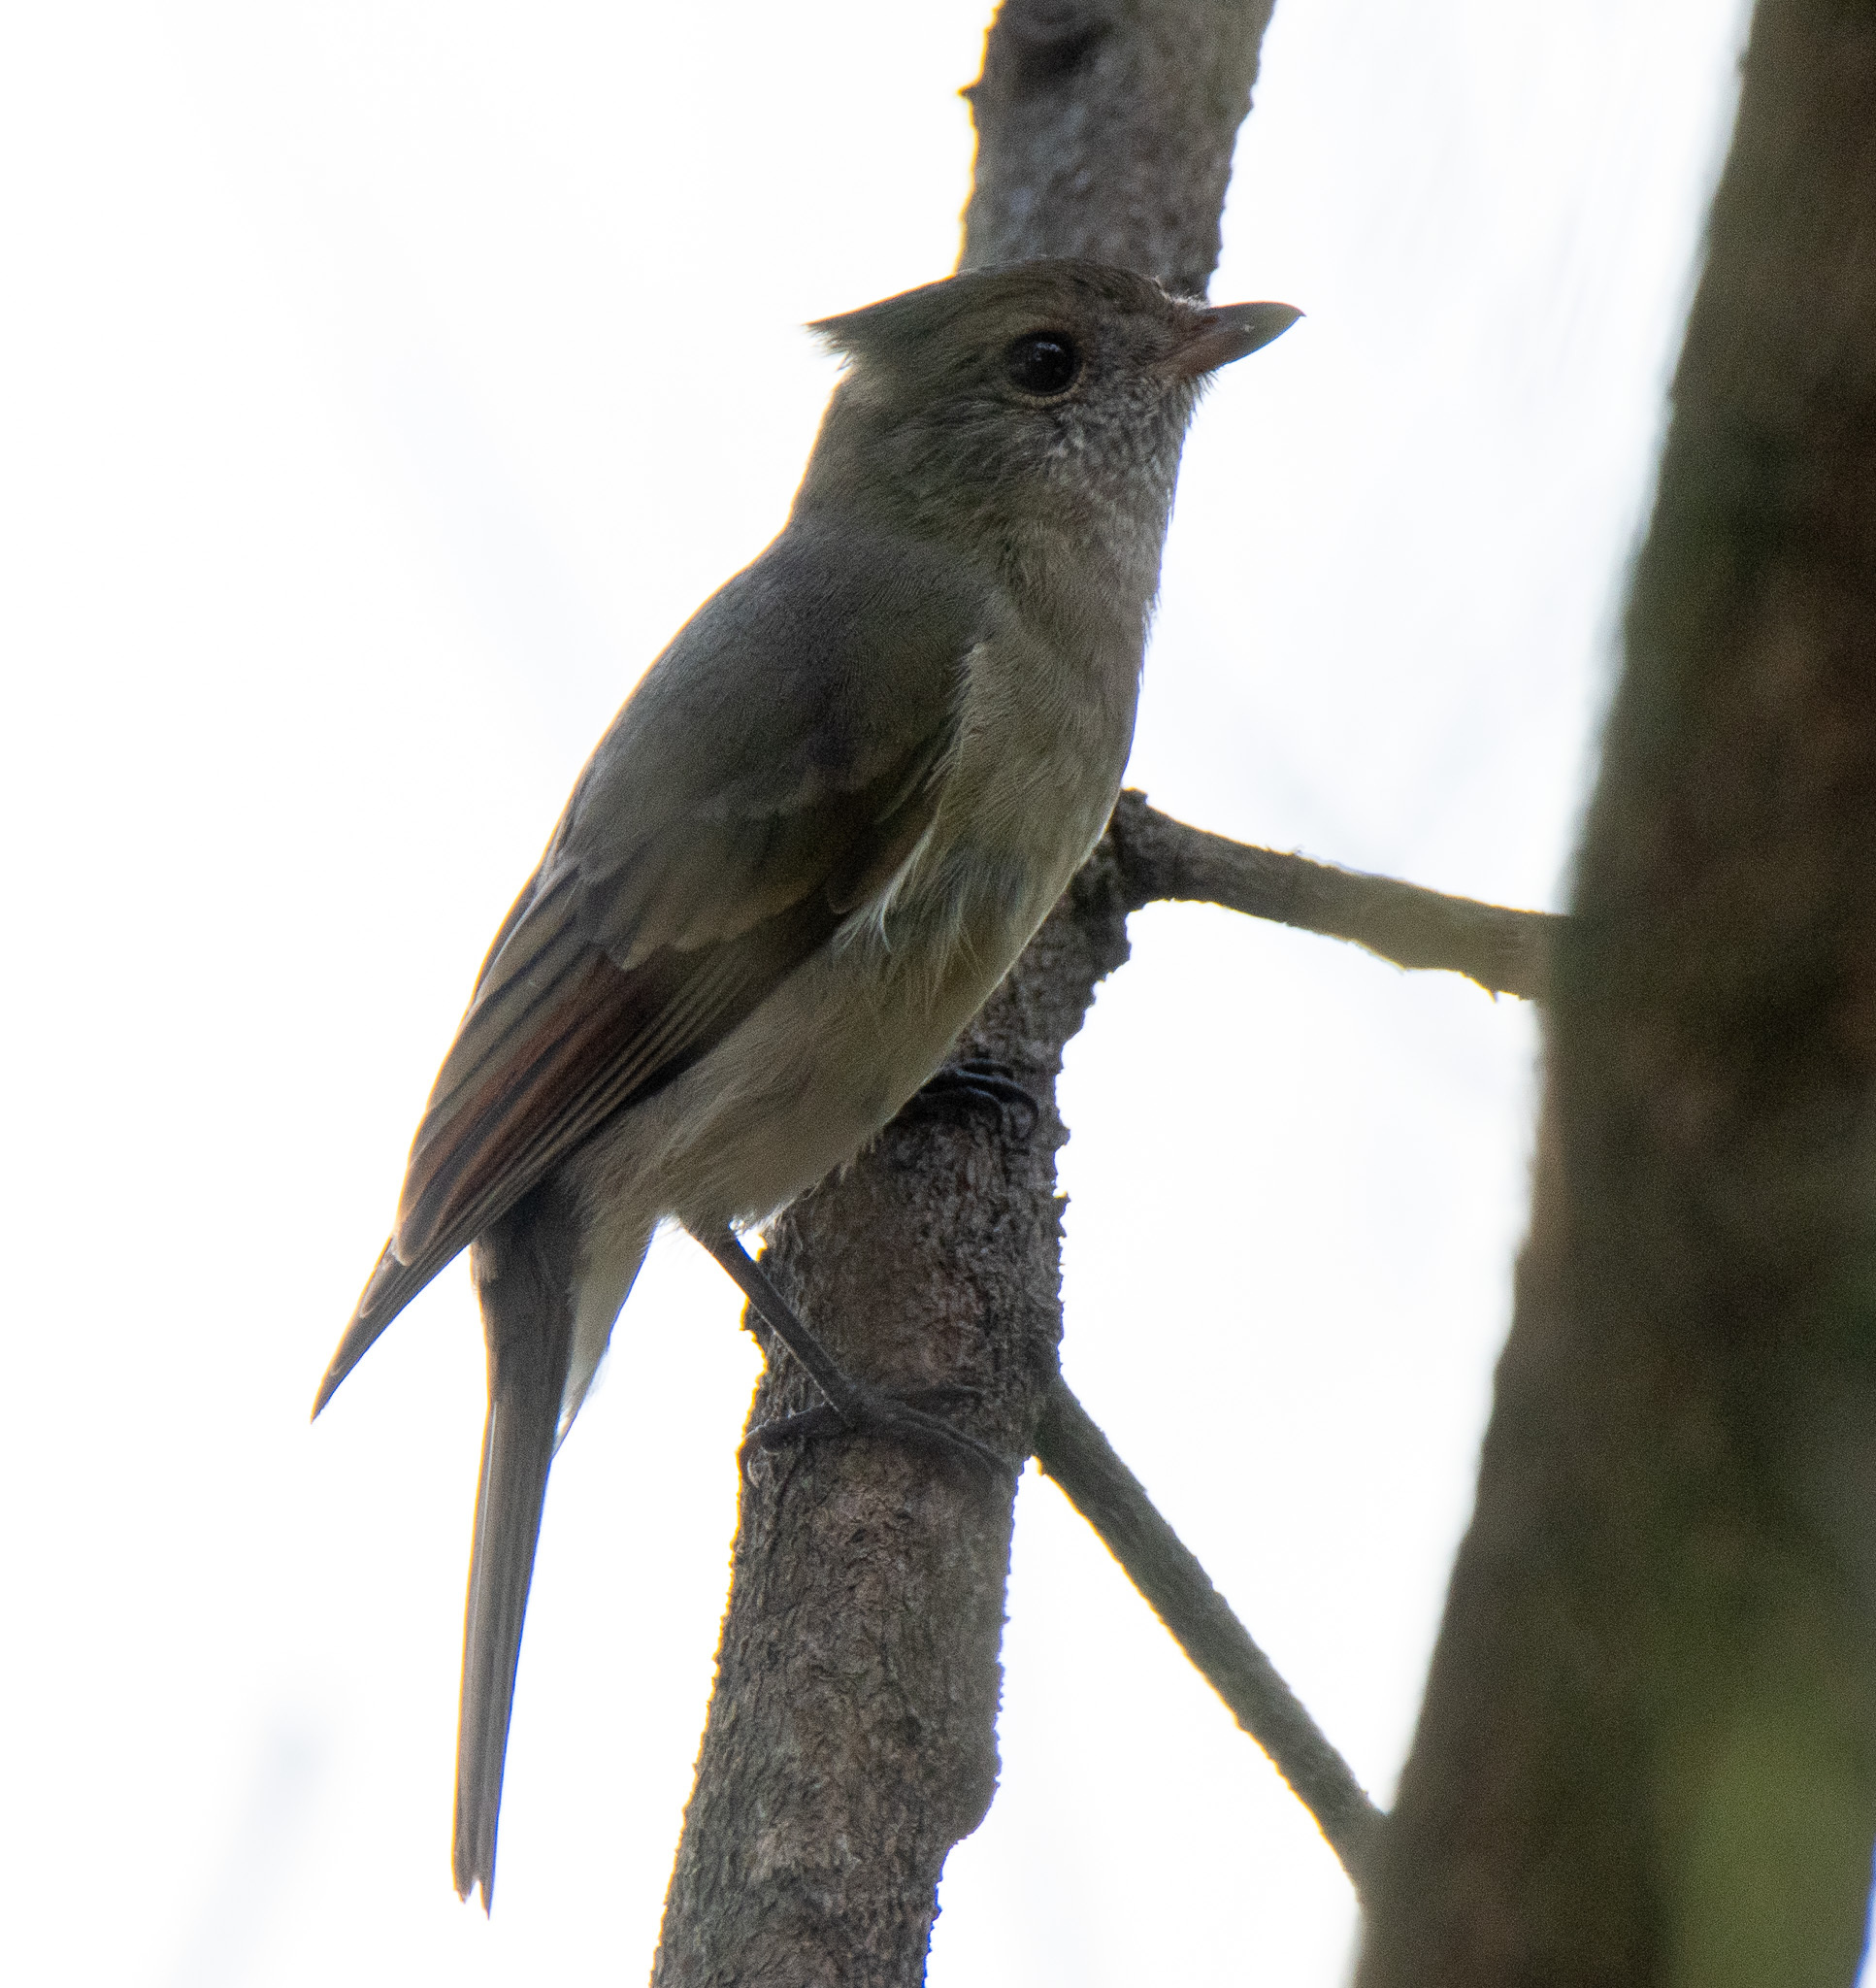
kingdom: Animalia
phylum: Chordata
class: Aves
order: Passeriformes
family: Pachycephalidae
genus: Pachycephala
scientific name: Pachycephala pectoralis
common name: Australian golden whistler
